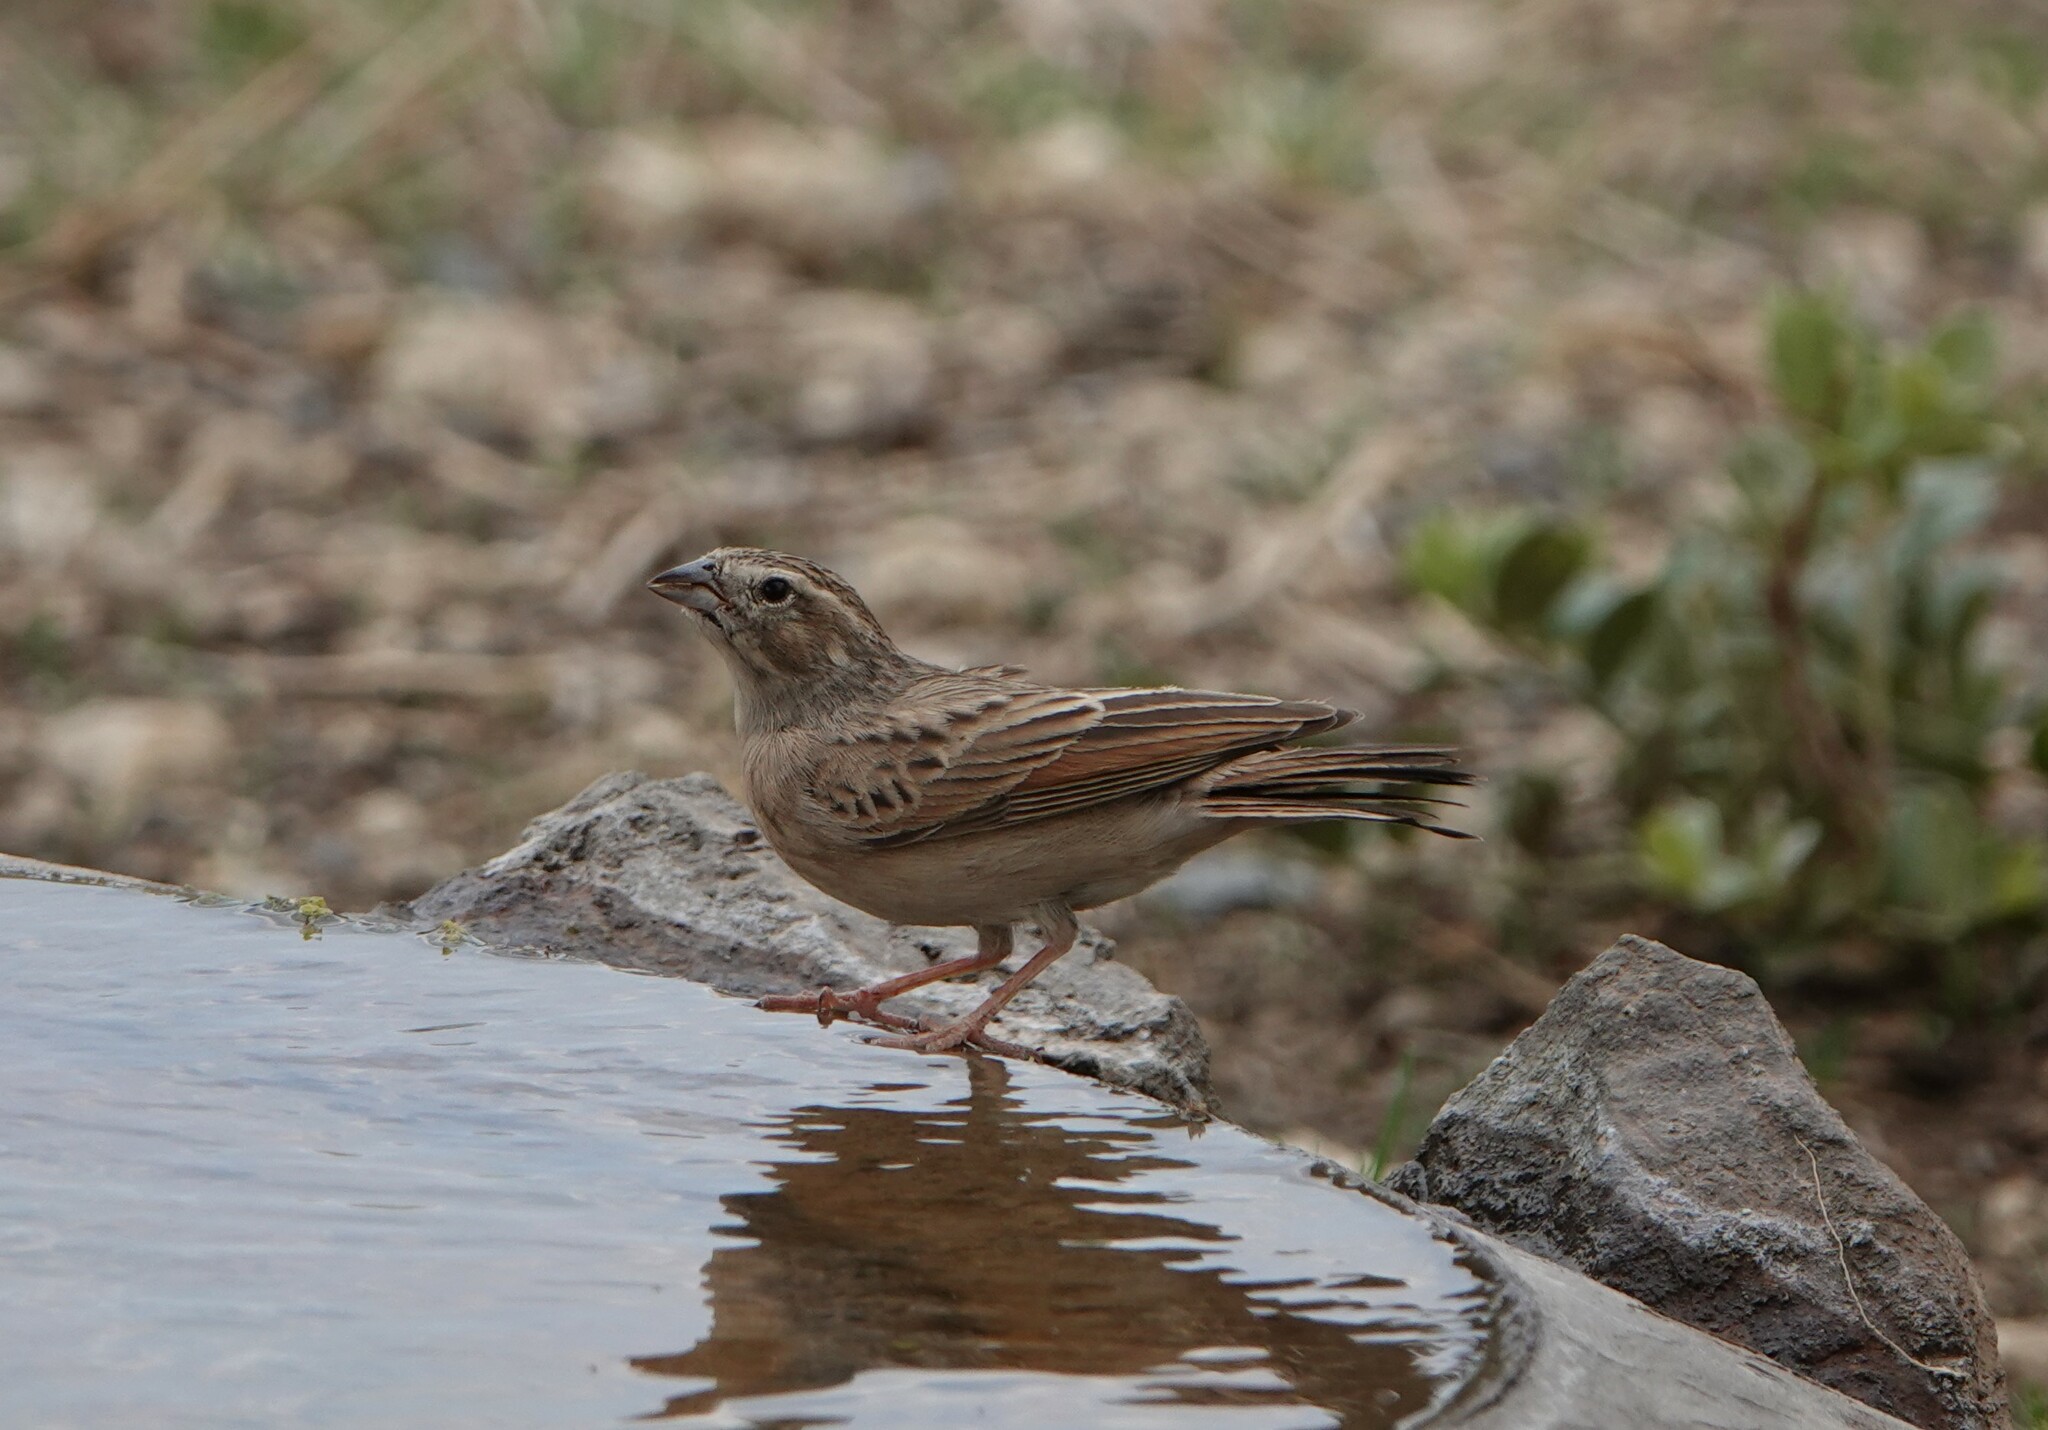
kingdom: Animalia
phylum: Chordata
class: Aves
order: Passeriformes
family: Emberizidae
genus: Emberiza
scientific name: Emberiza impetuani
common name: Lark-like bunting
